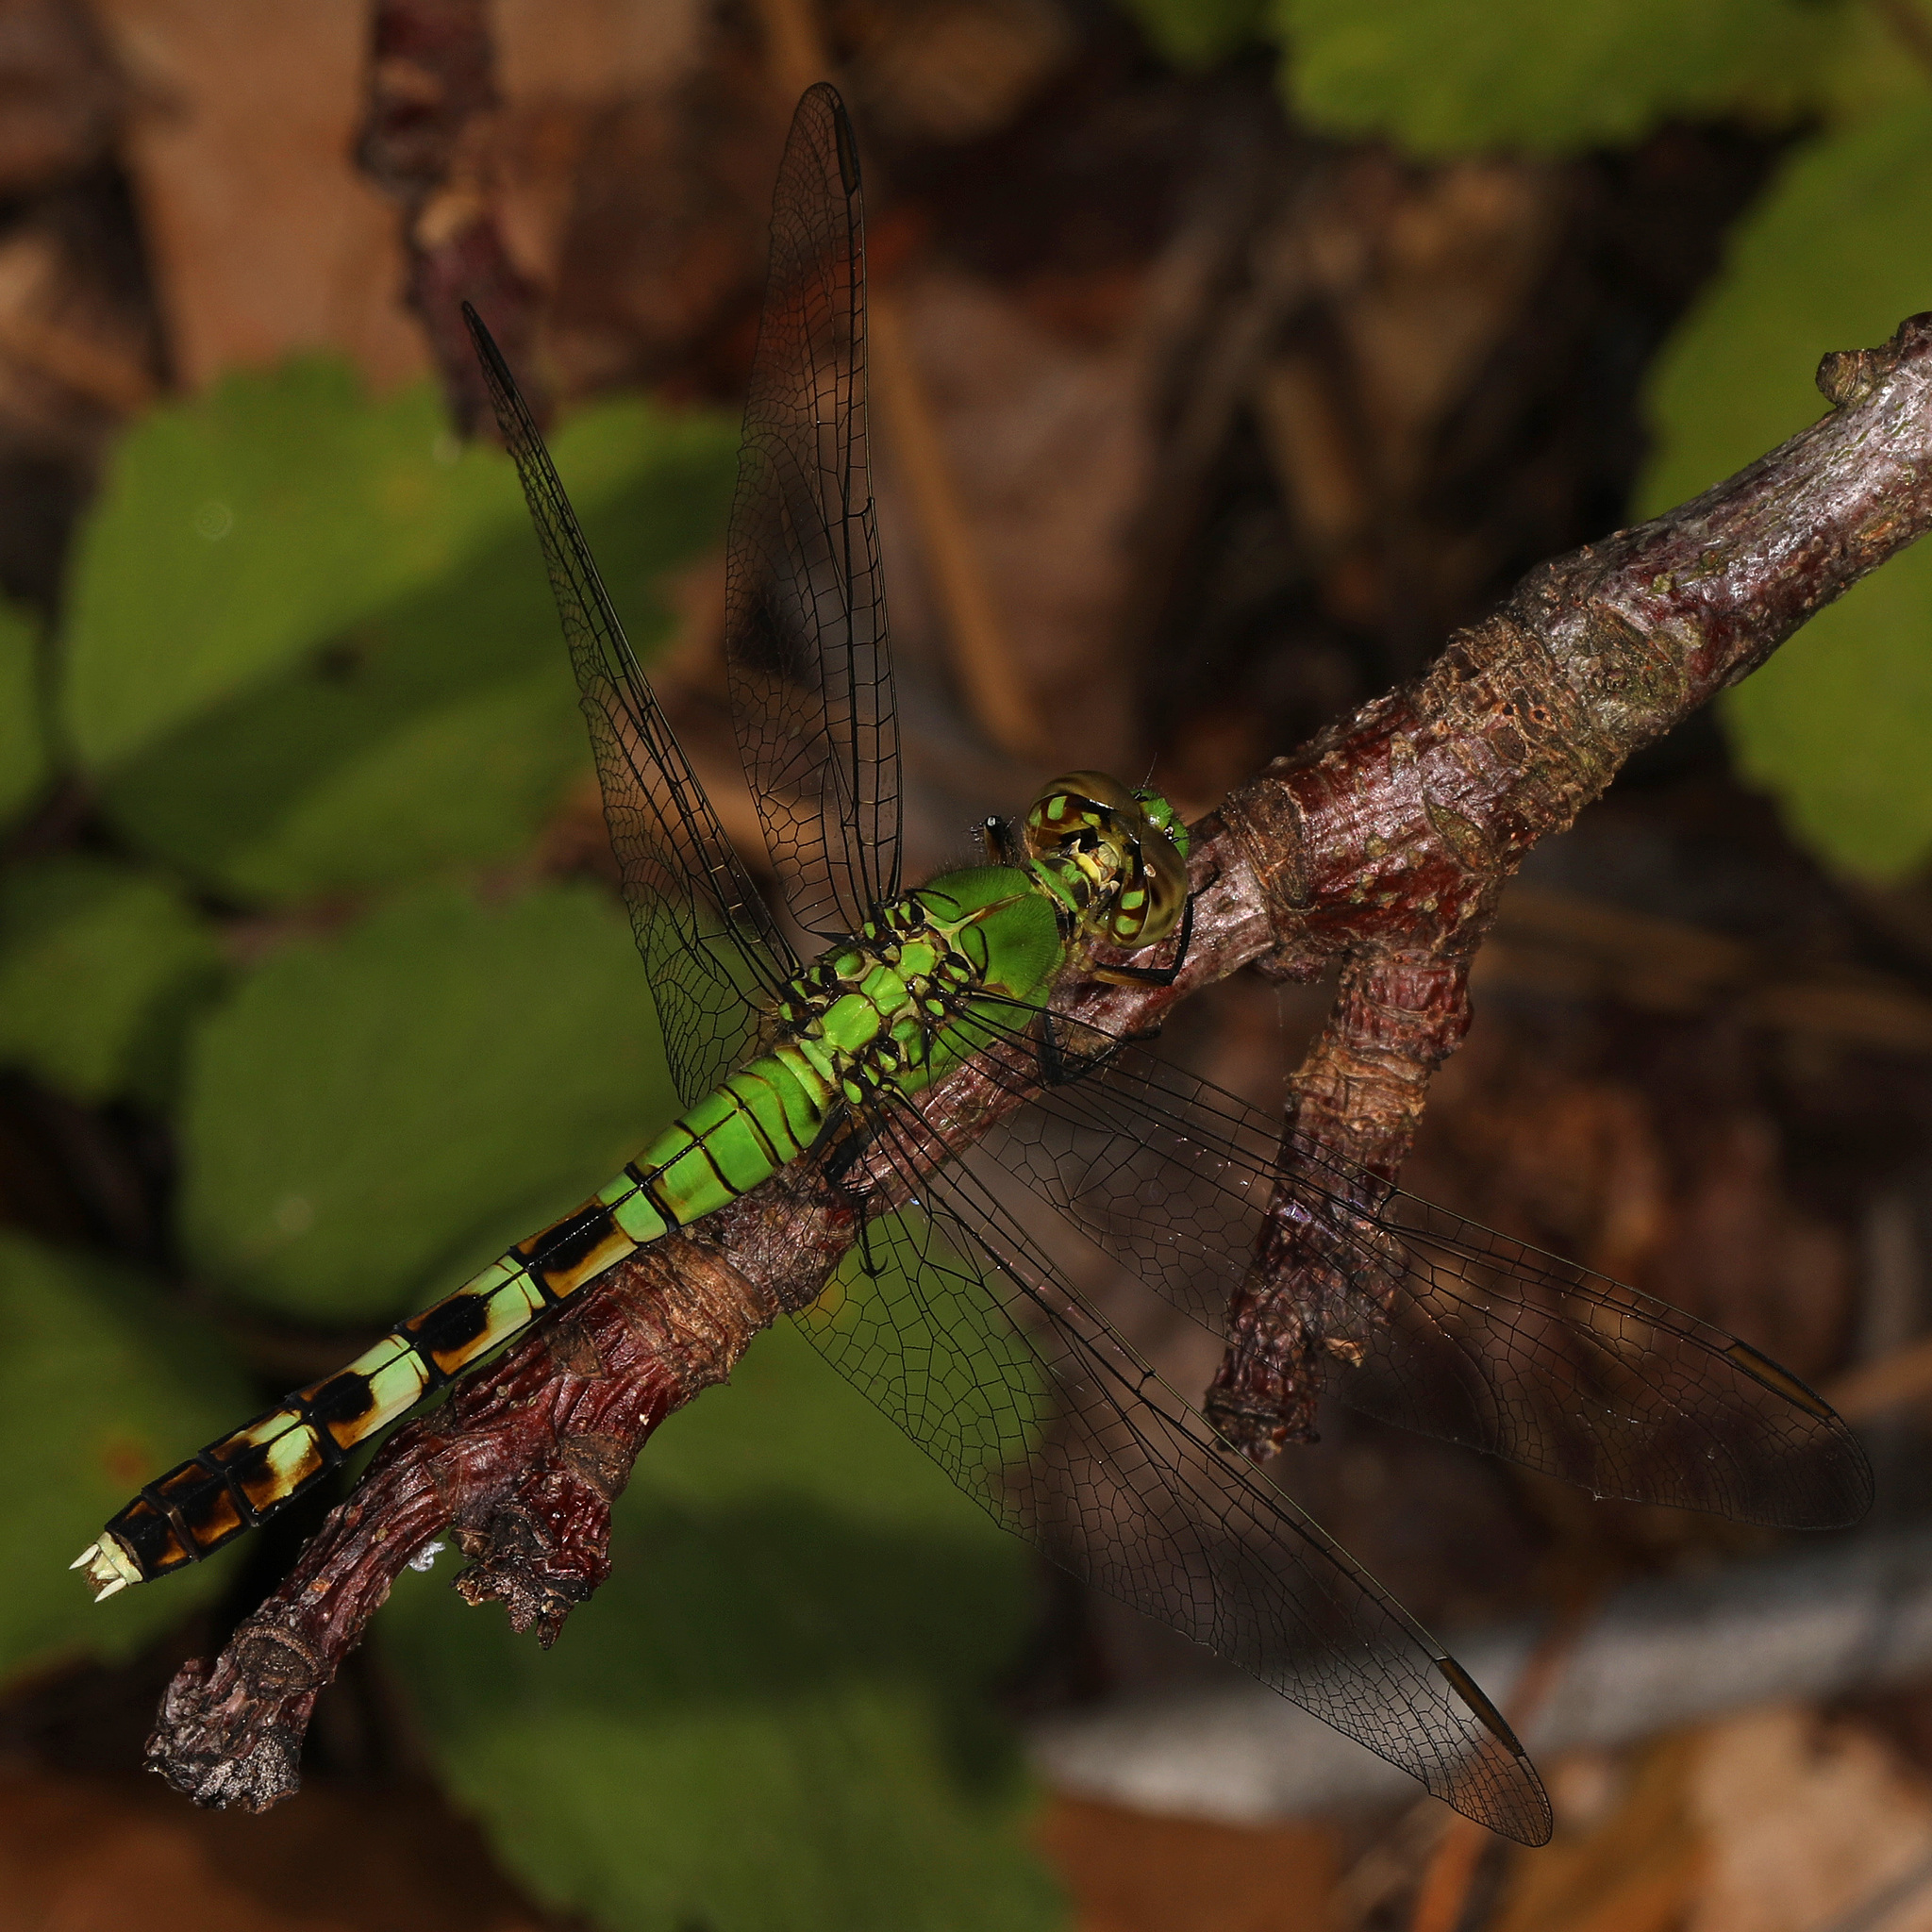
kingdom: Animalia
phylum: Arthropoda
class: Insecta
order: Odonata
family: Libellulidae
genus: Erythemis
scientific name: Erythemis simplicicollis
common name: Eastern pondhawk
